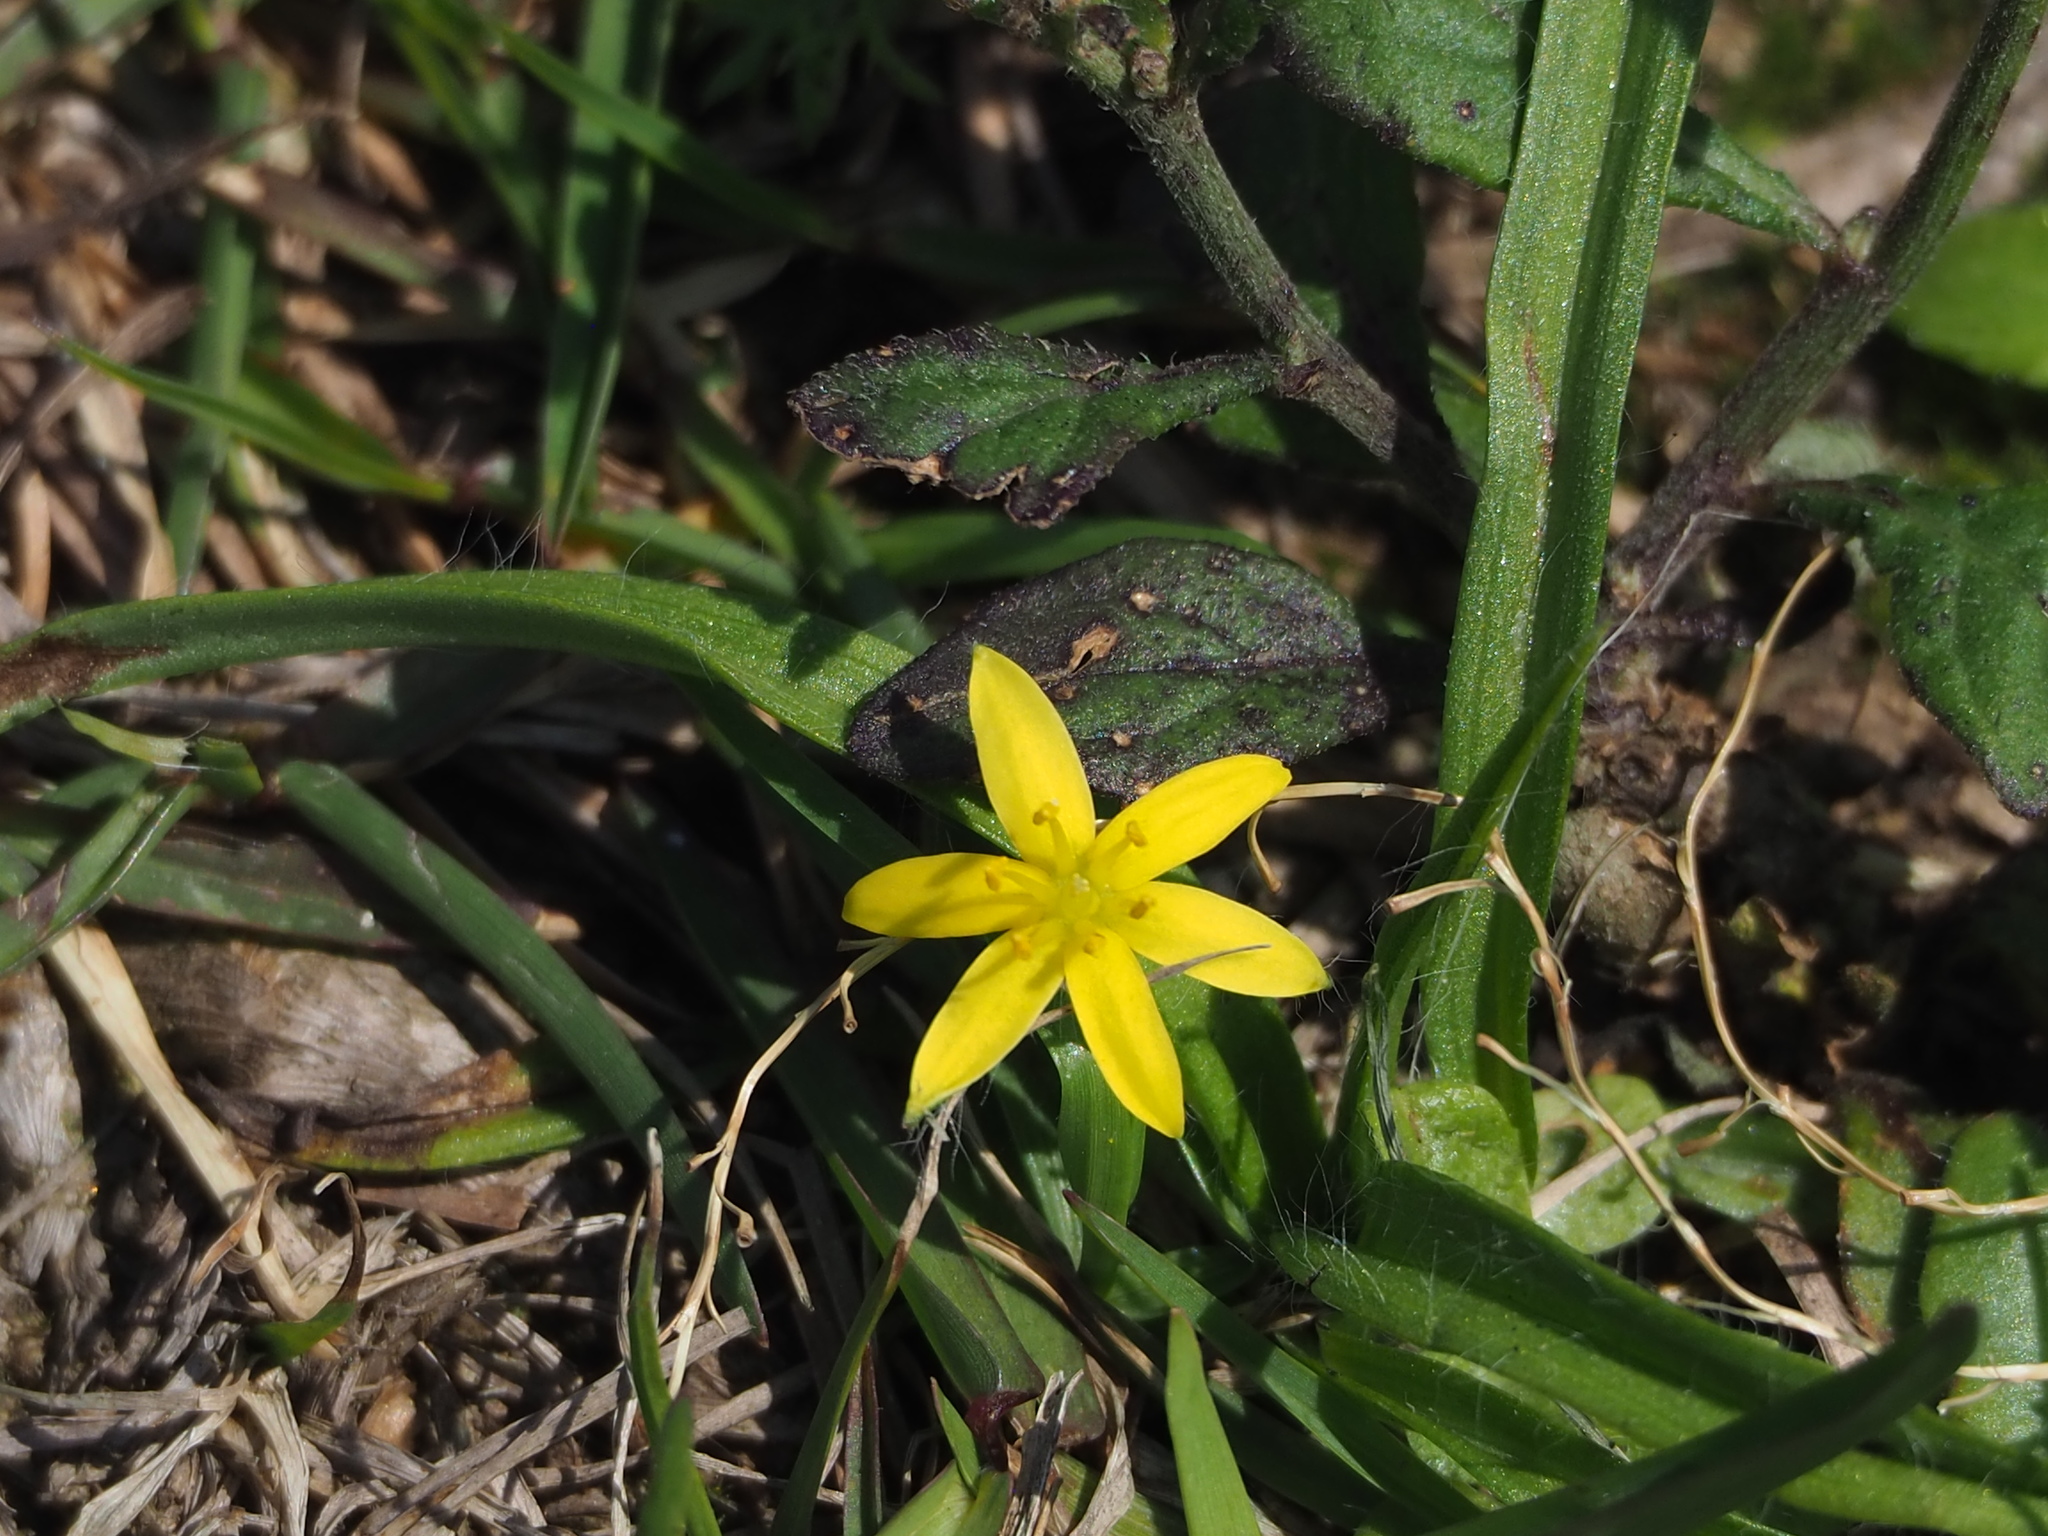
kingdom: Plantae
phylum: Tracheophyta
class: Liliopsida
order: Asparagales
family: Hypoxidaceae
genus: Hypoxis
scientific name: Hypoxis aurea
